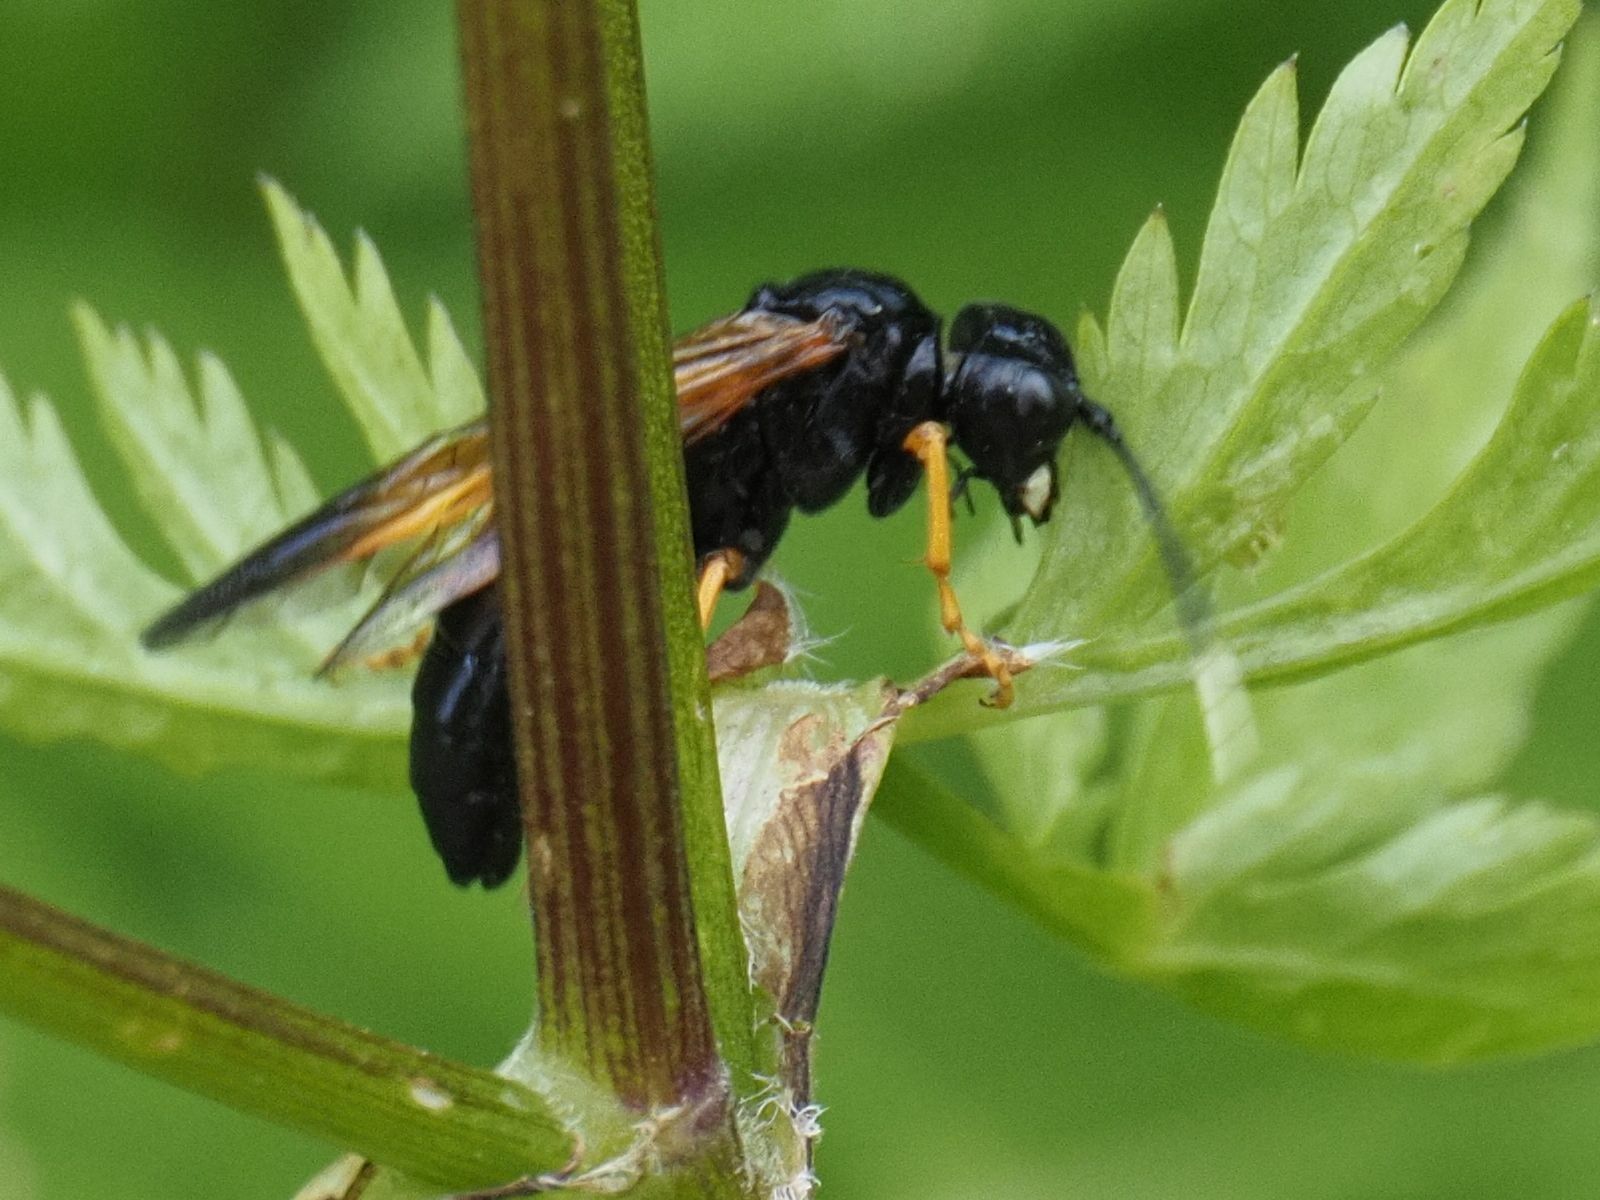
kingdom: Animalia
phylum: Arthropoda
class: Insecta
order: Hymenoptera
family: Tenthredinidae
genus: Tenthredo
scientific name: Tenthredo crassa
